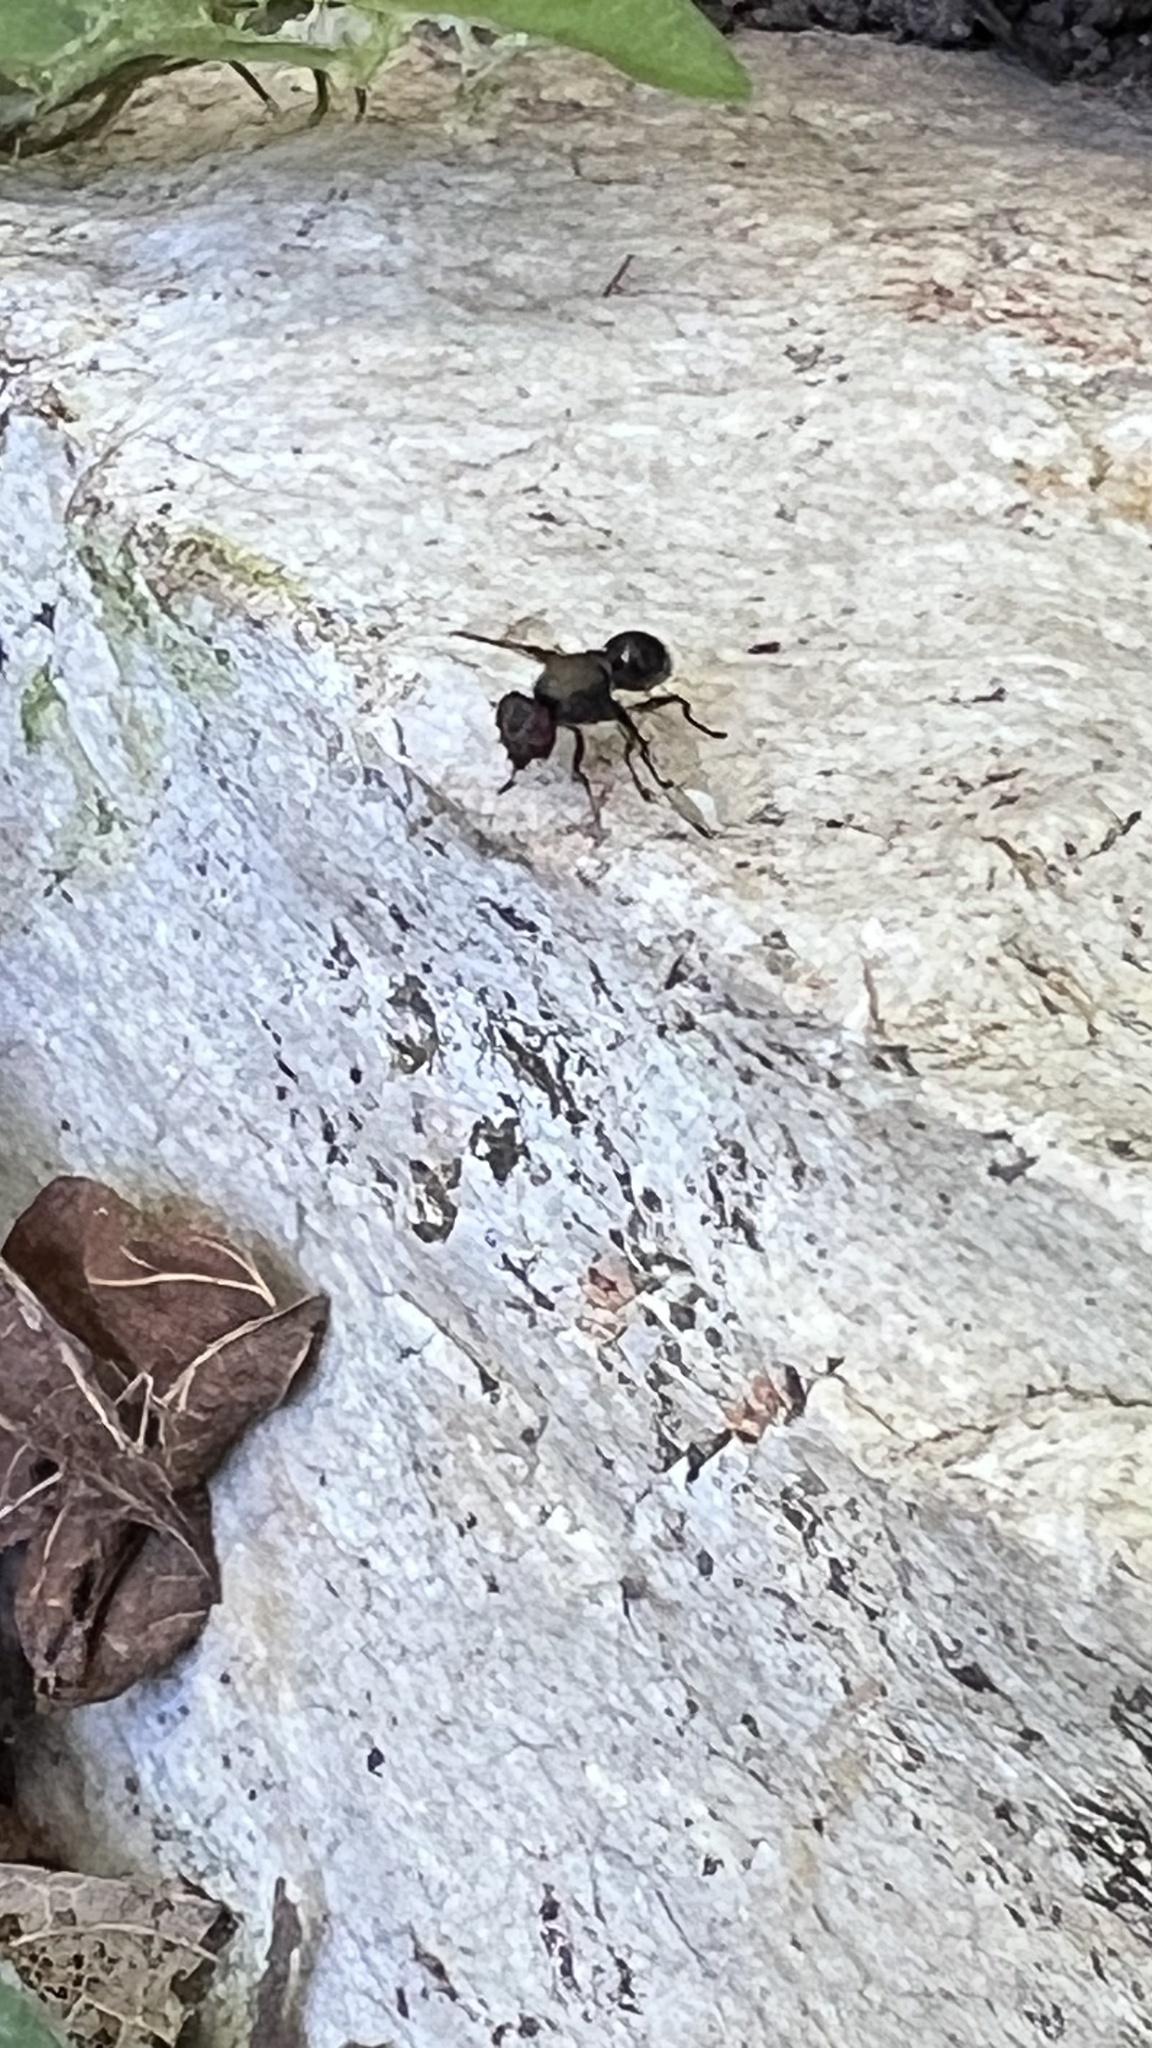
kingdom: Animalia
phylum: Arthropoda
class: Insecta
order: Diptera
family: Platystomatidae
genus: Pogonortalis
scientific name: Pogonortalis doclea
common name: Boatman fly
